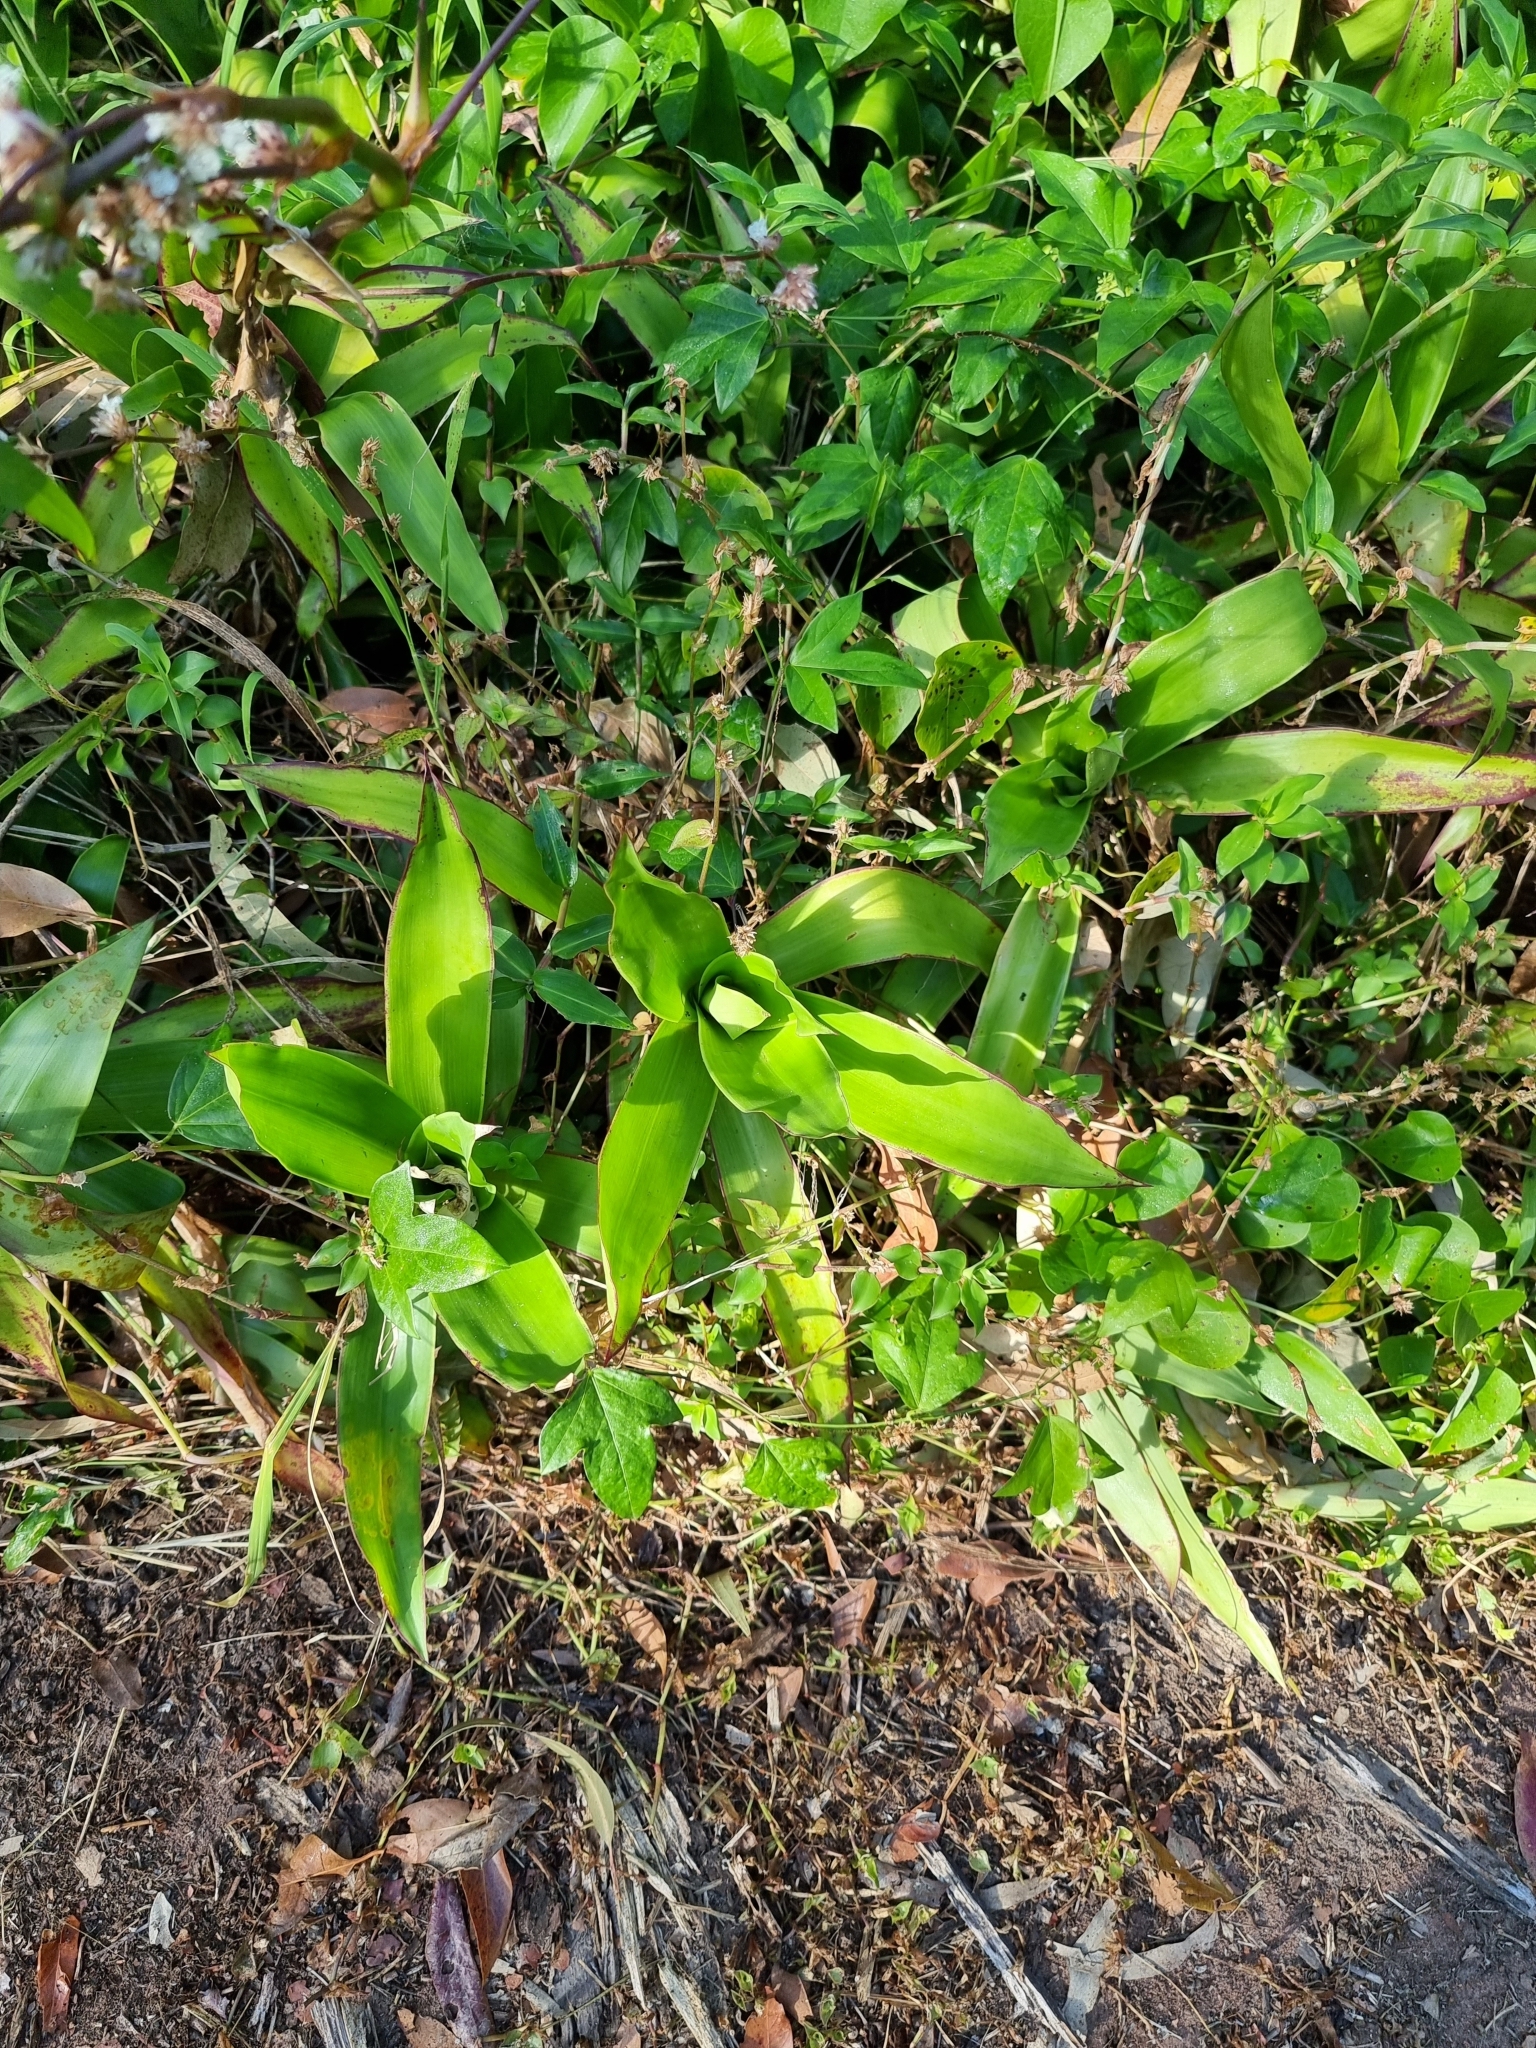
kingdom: Plantae
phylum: Tracheophyta
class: Liliopsida
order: Commelinales
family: Commelinaceae
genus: Callisia
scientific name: Callisia fragrans
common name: Basketplant
